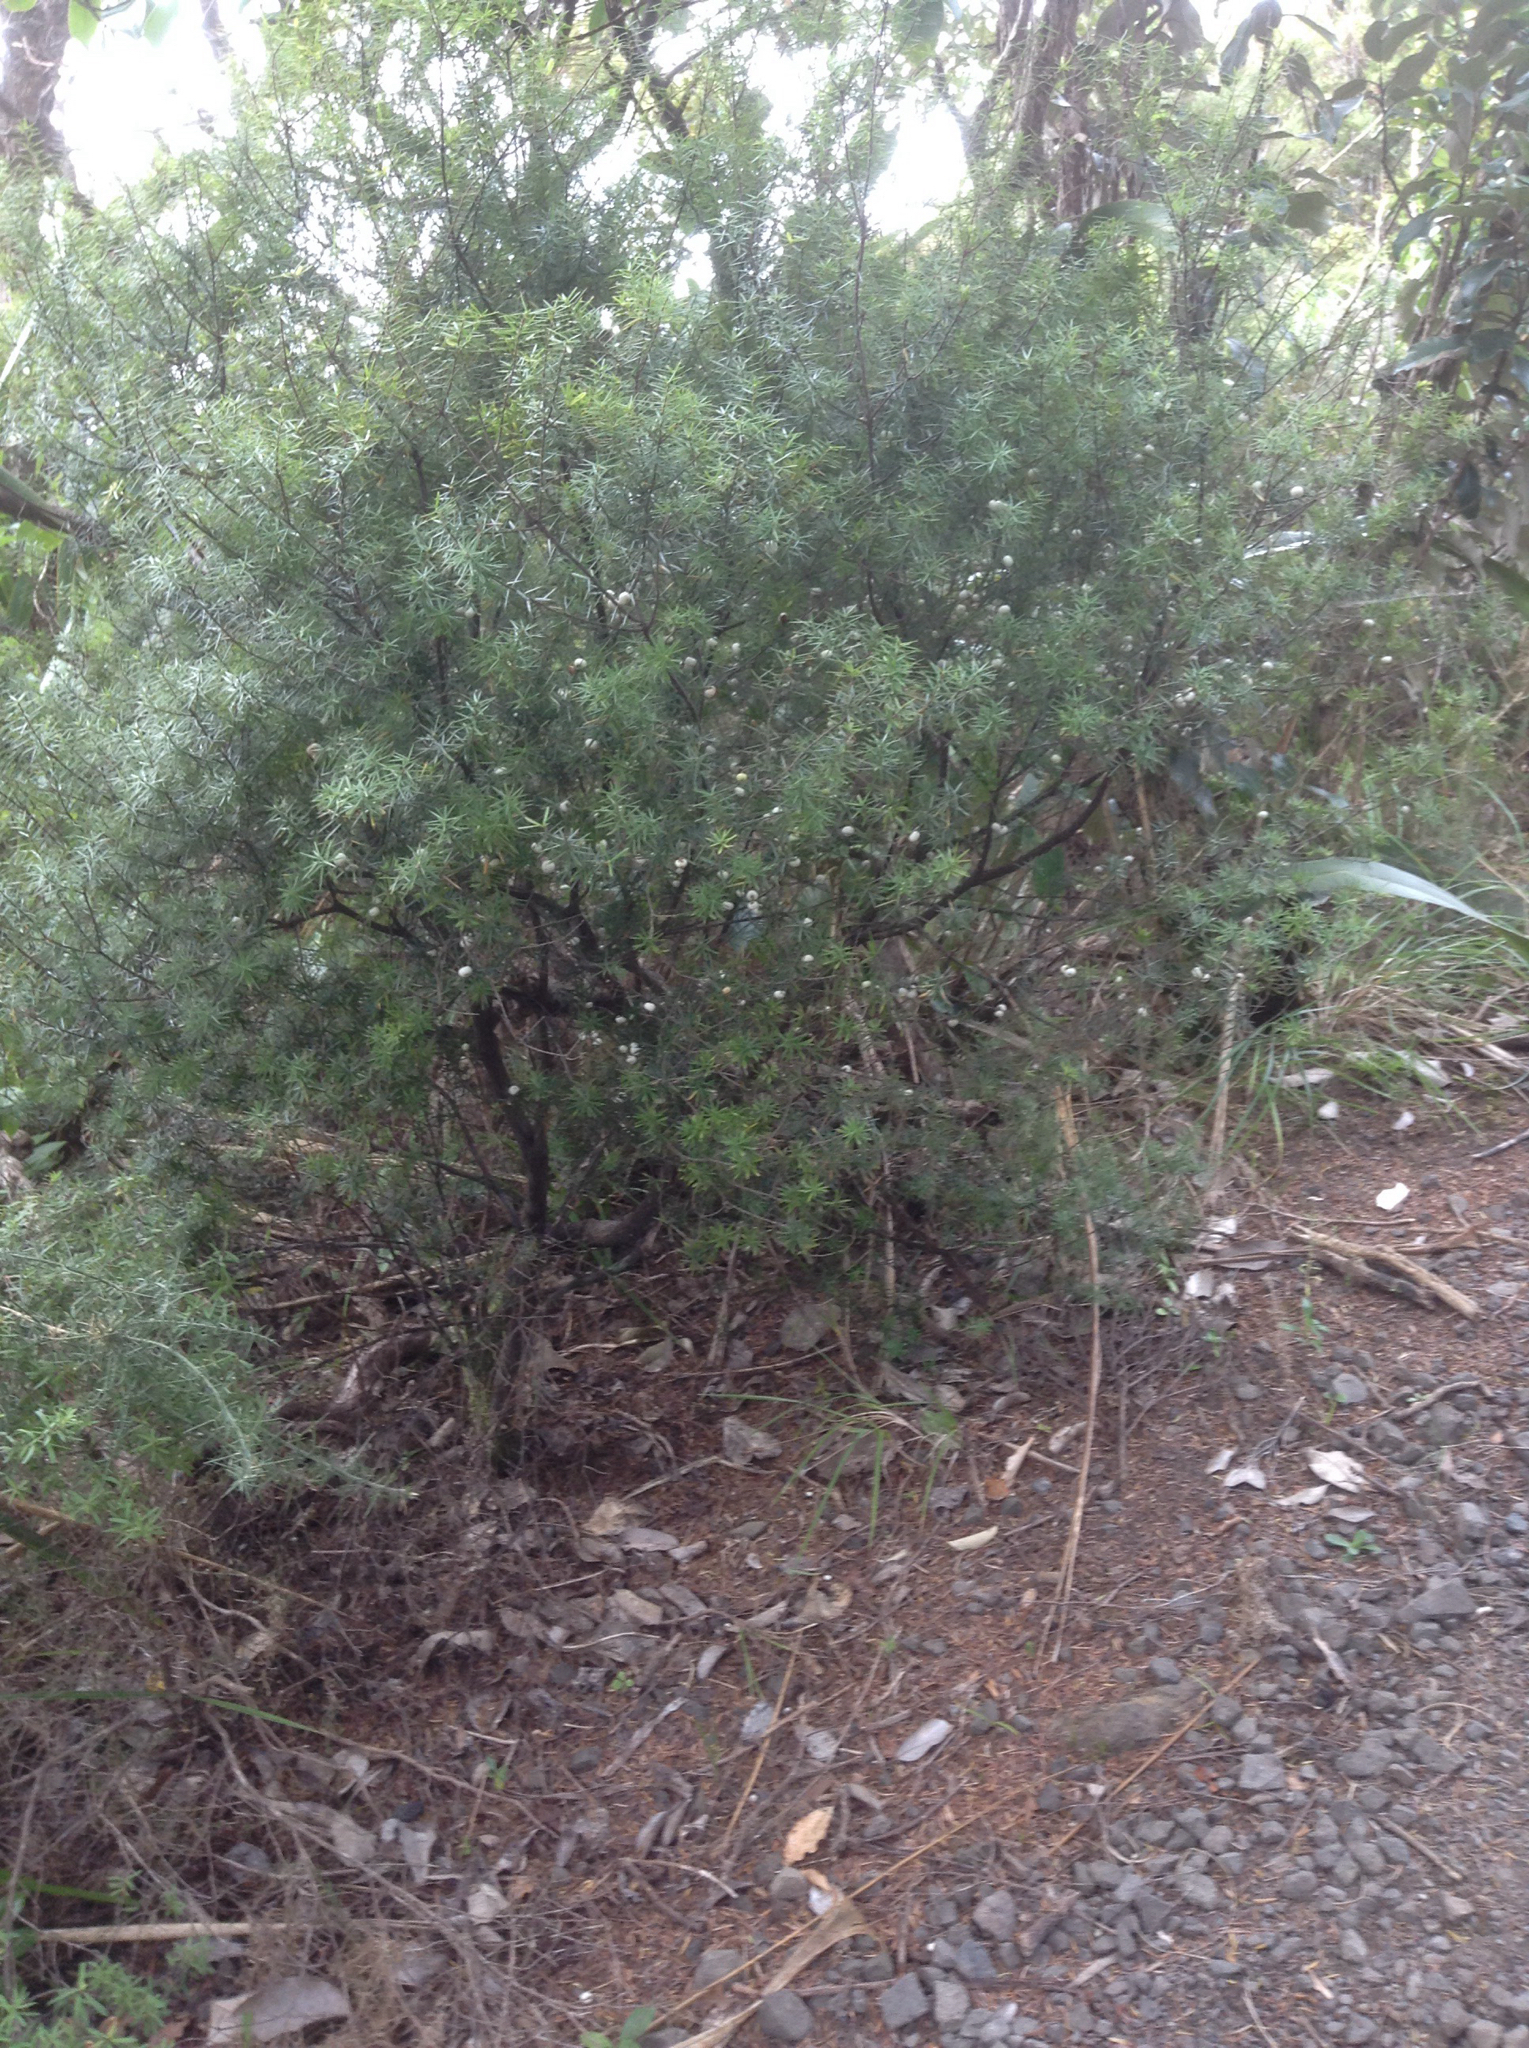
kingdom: Plantae
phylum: Tracheophyta
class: Magnoliopsida
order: Ericales
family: Ericaceae
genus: Leptecophylla
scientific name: Leptecophylla juniperina
